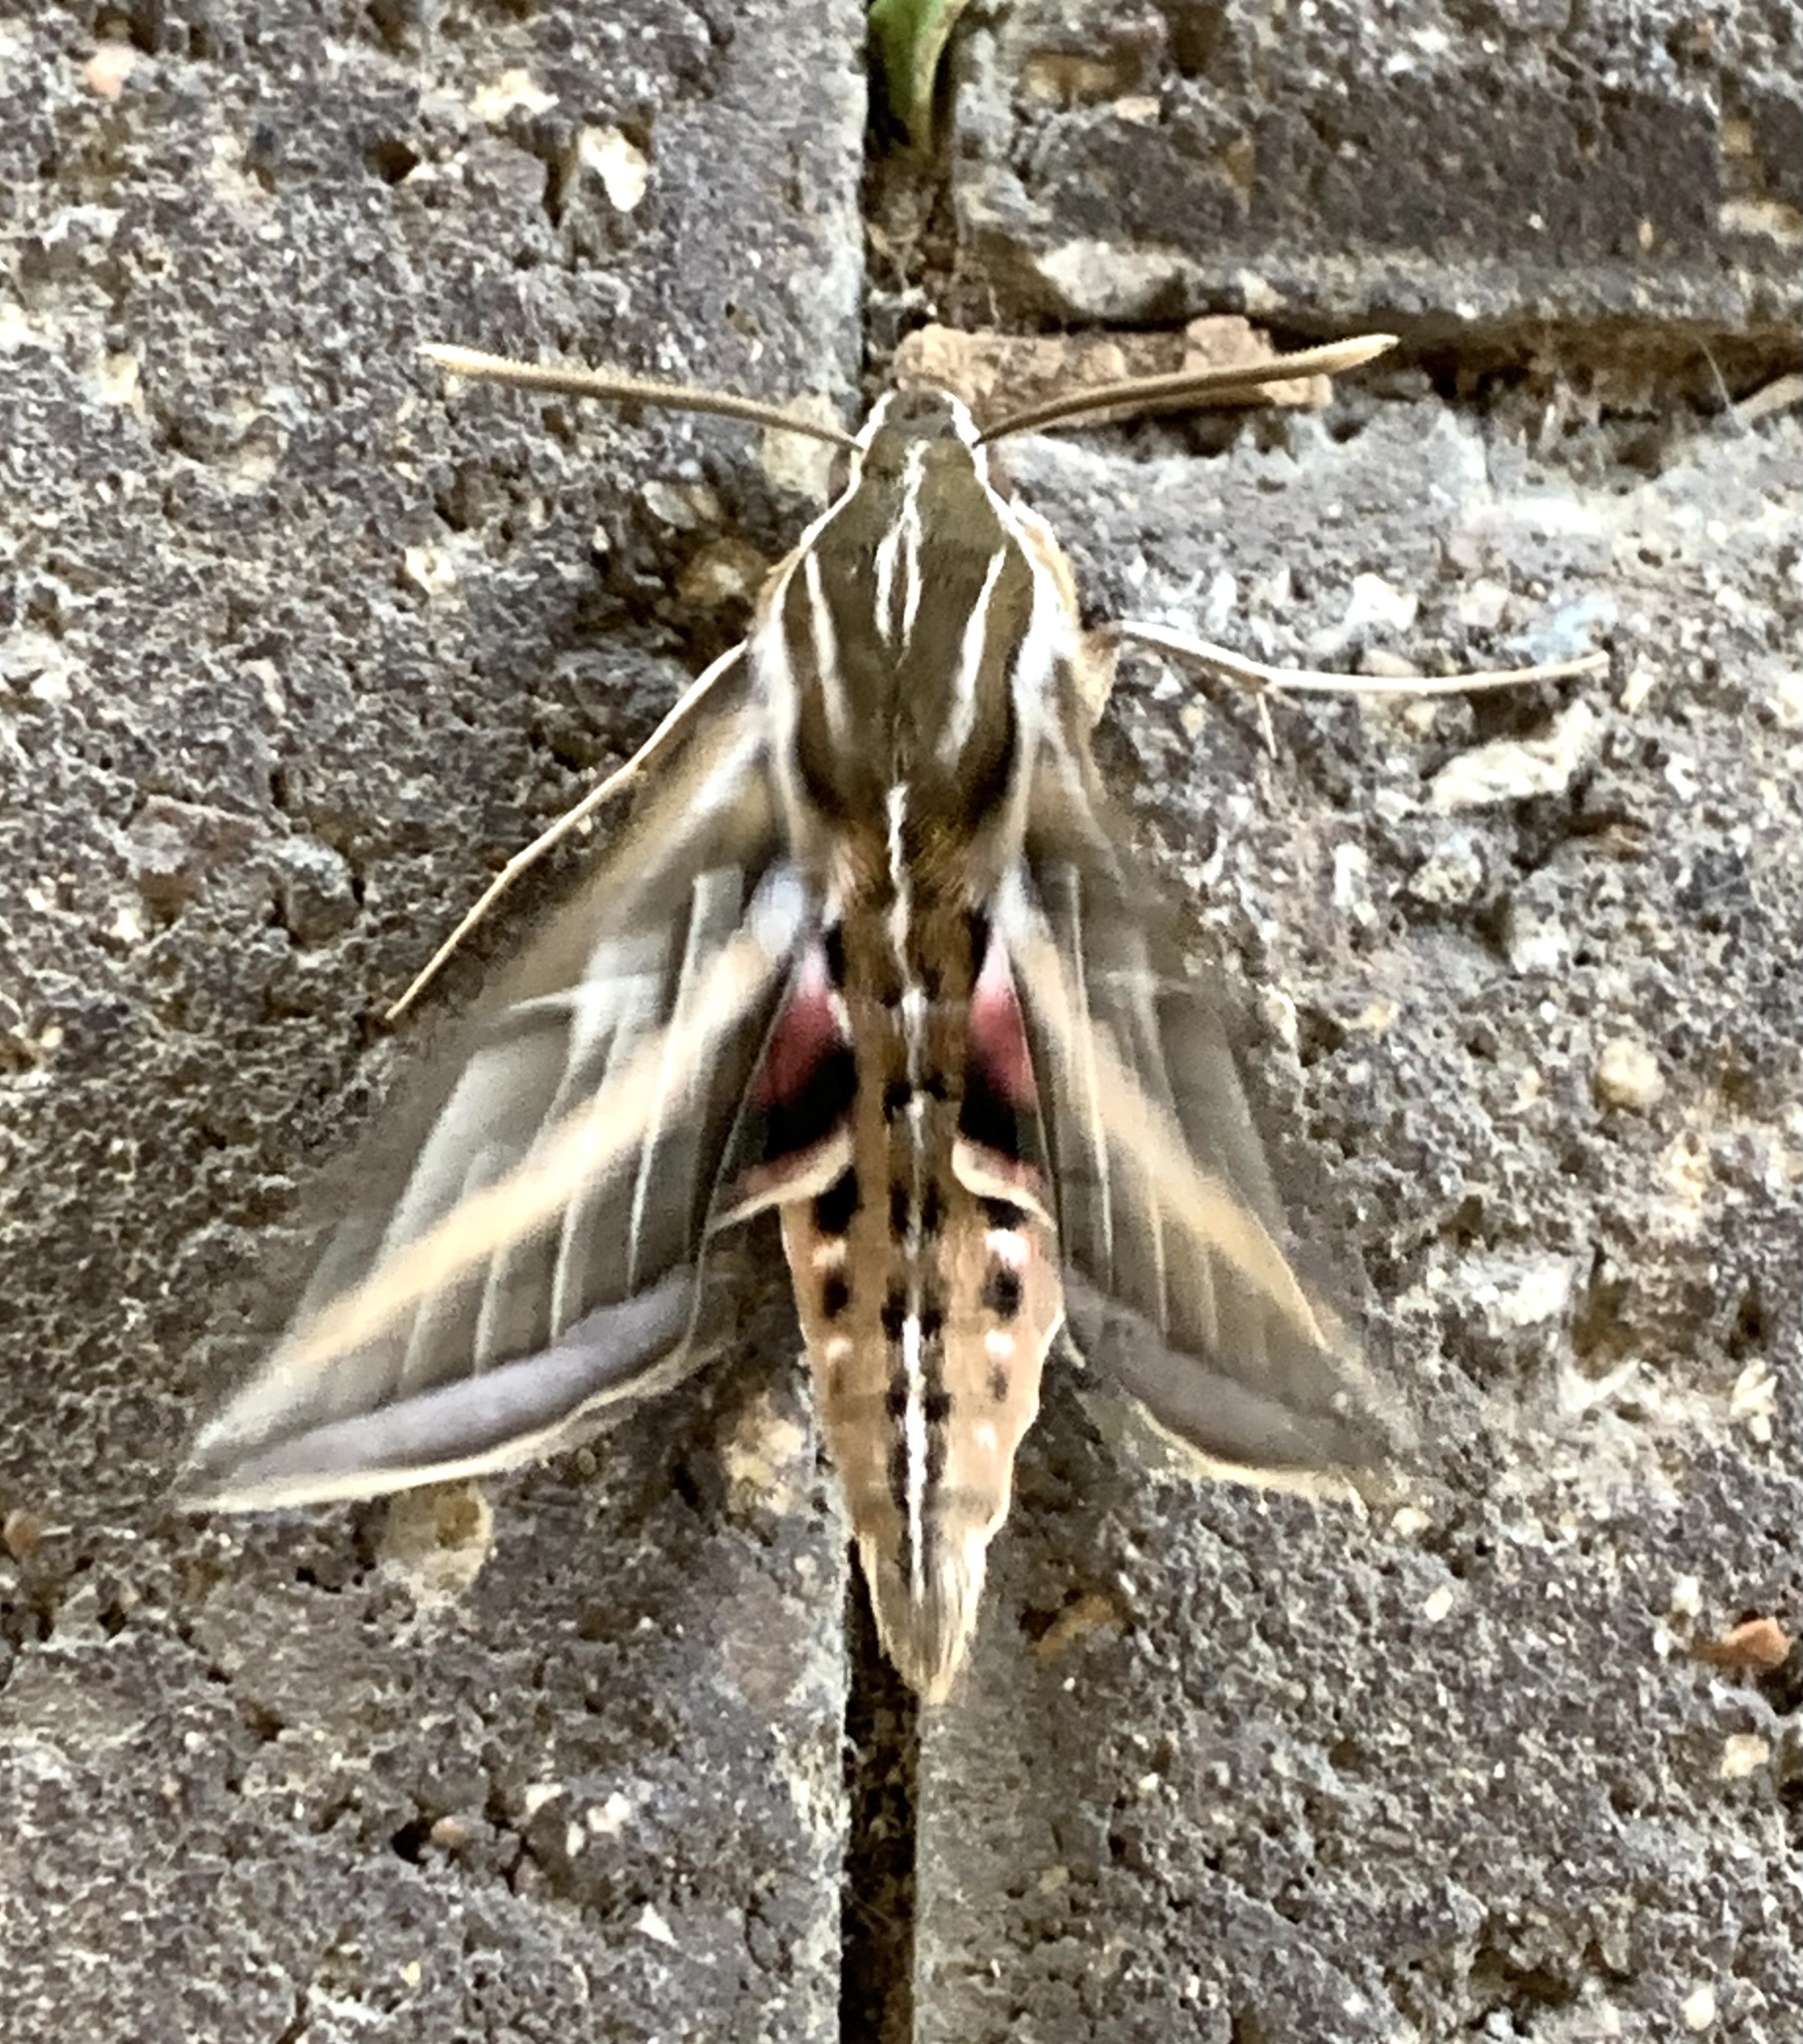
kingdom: Animalia
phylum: Arthropoda
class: Insecta
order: Lepidoptera
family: Sphingidae
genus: Hyles
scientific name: Hyles lineata
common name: White-lined sphinx
